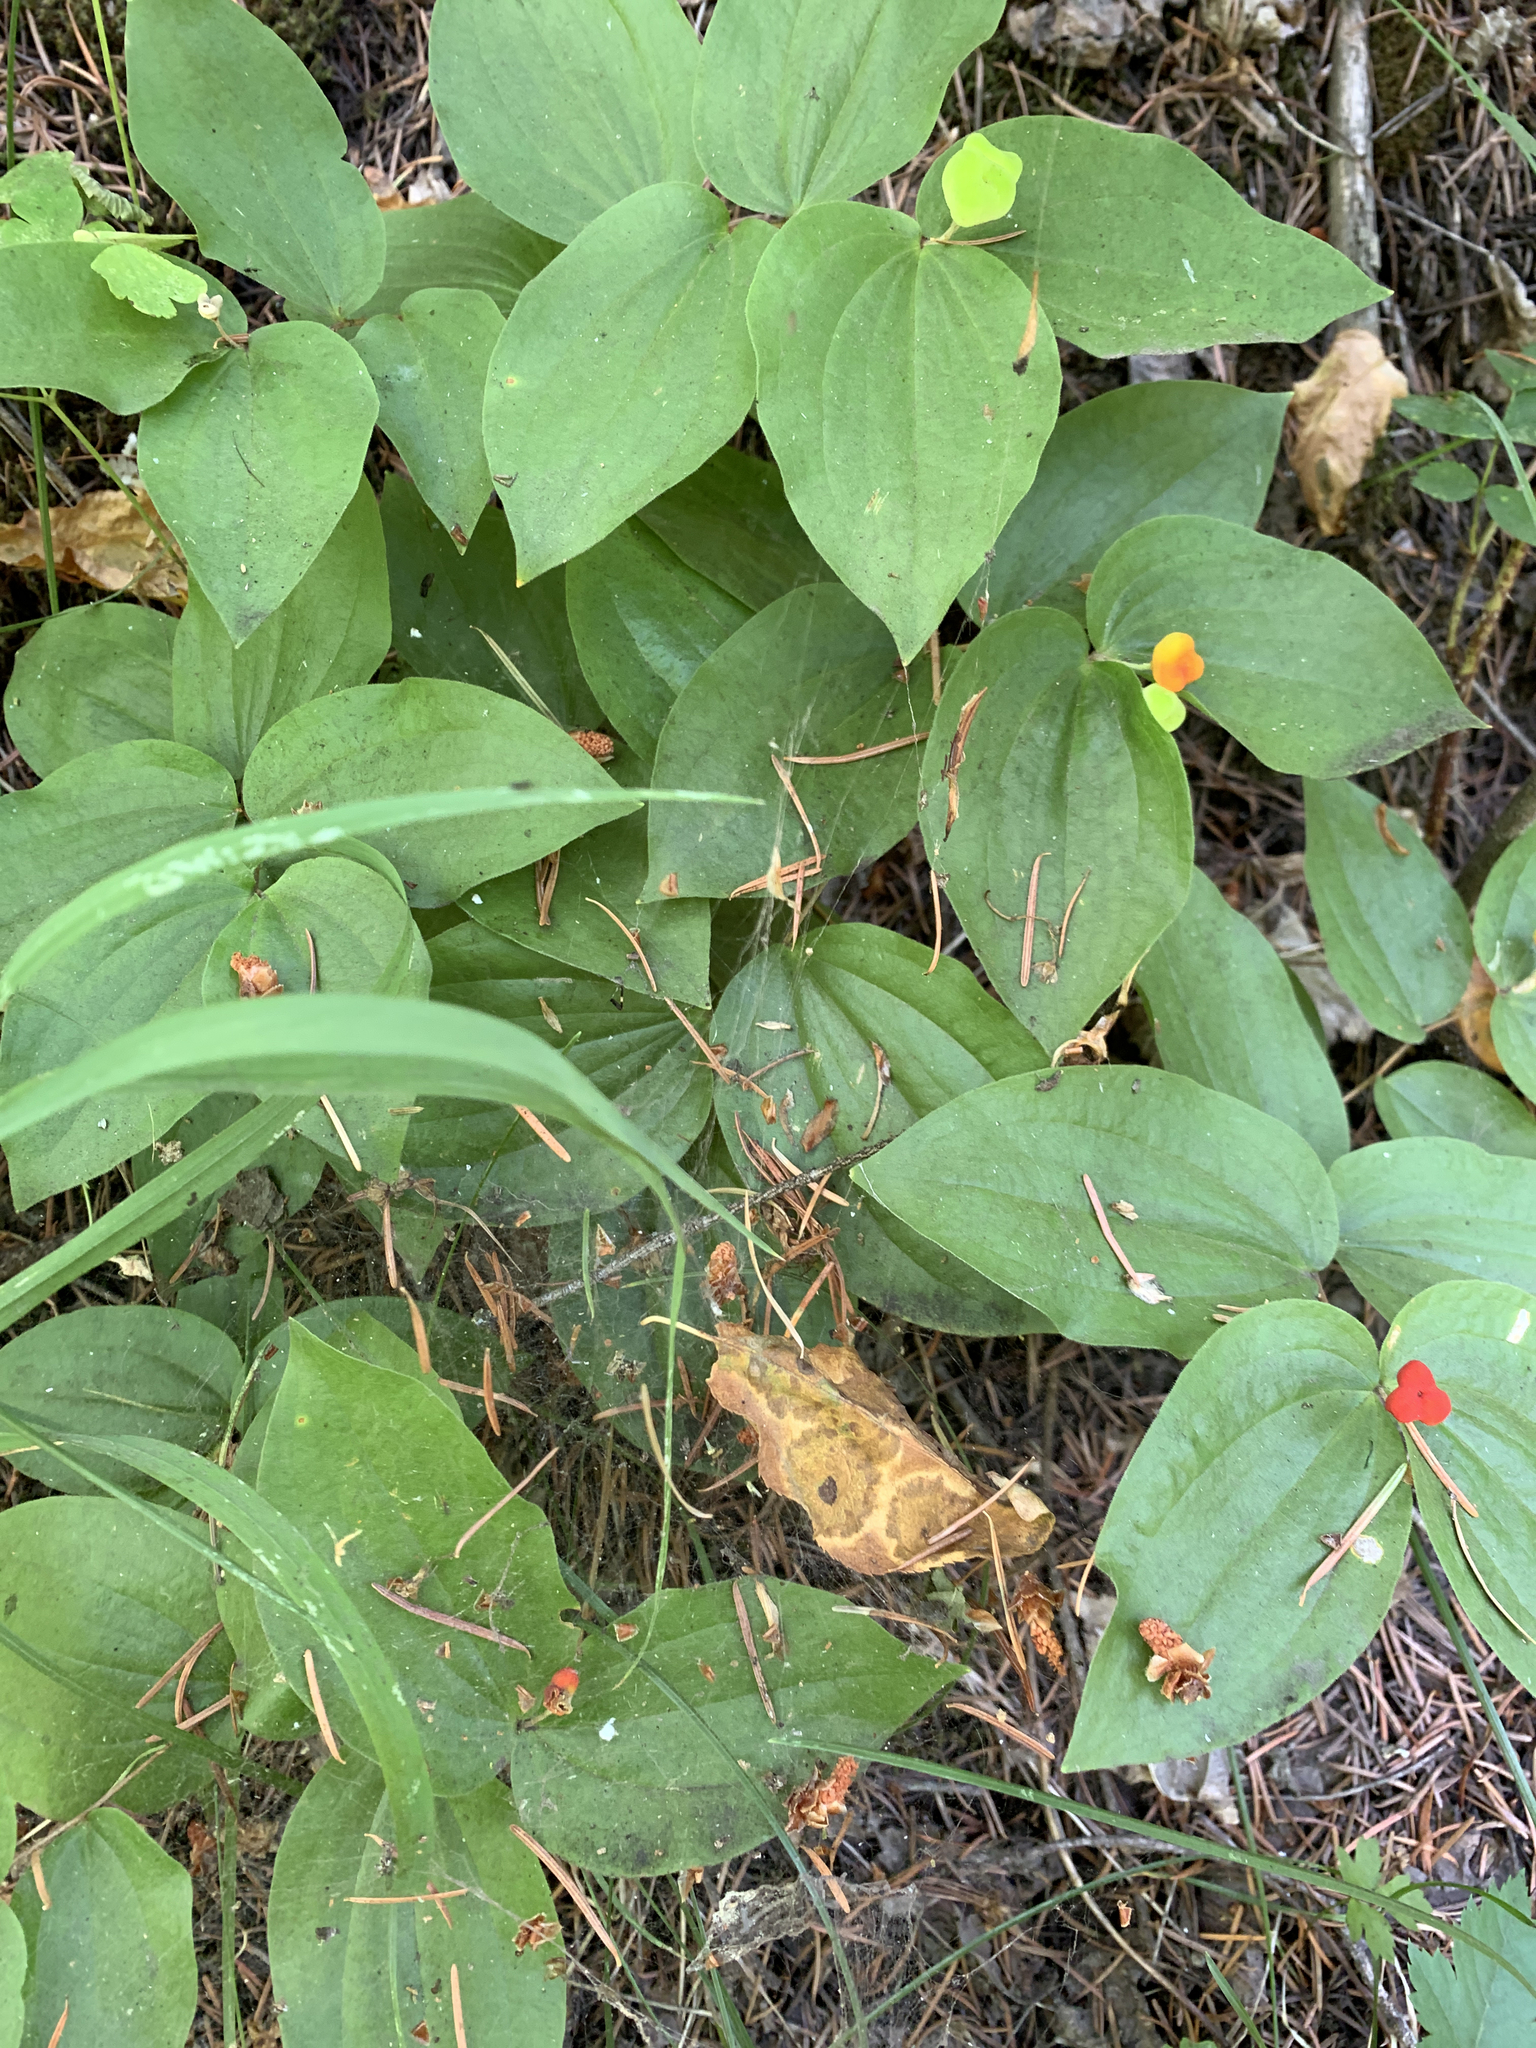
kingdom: Plantae
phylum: Tracheophyta
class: Liliopsida
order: Liliales
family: Liliaceae
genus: Prosartes
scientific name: Prosartes trachycarpa
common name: Rough-fruit fairy-bells
